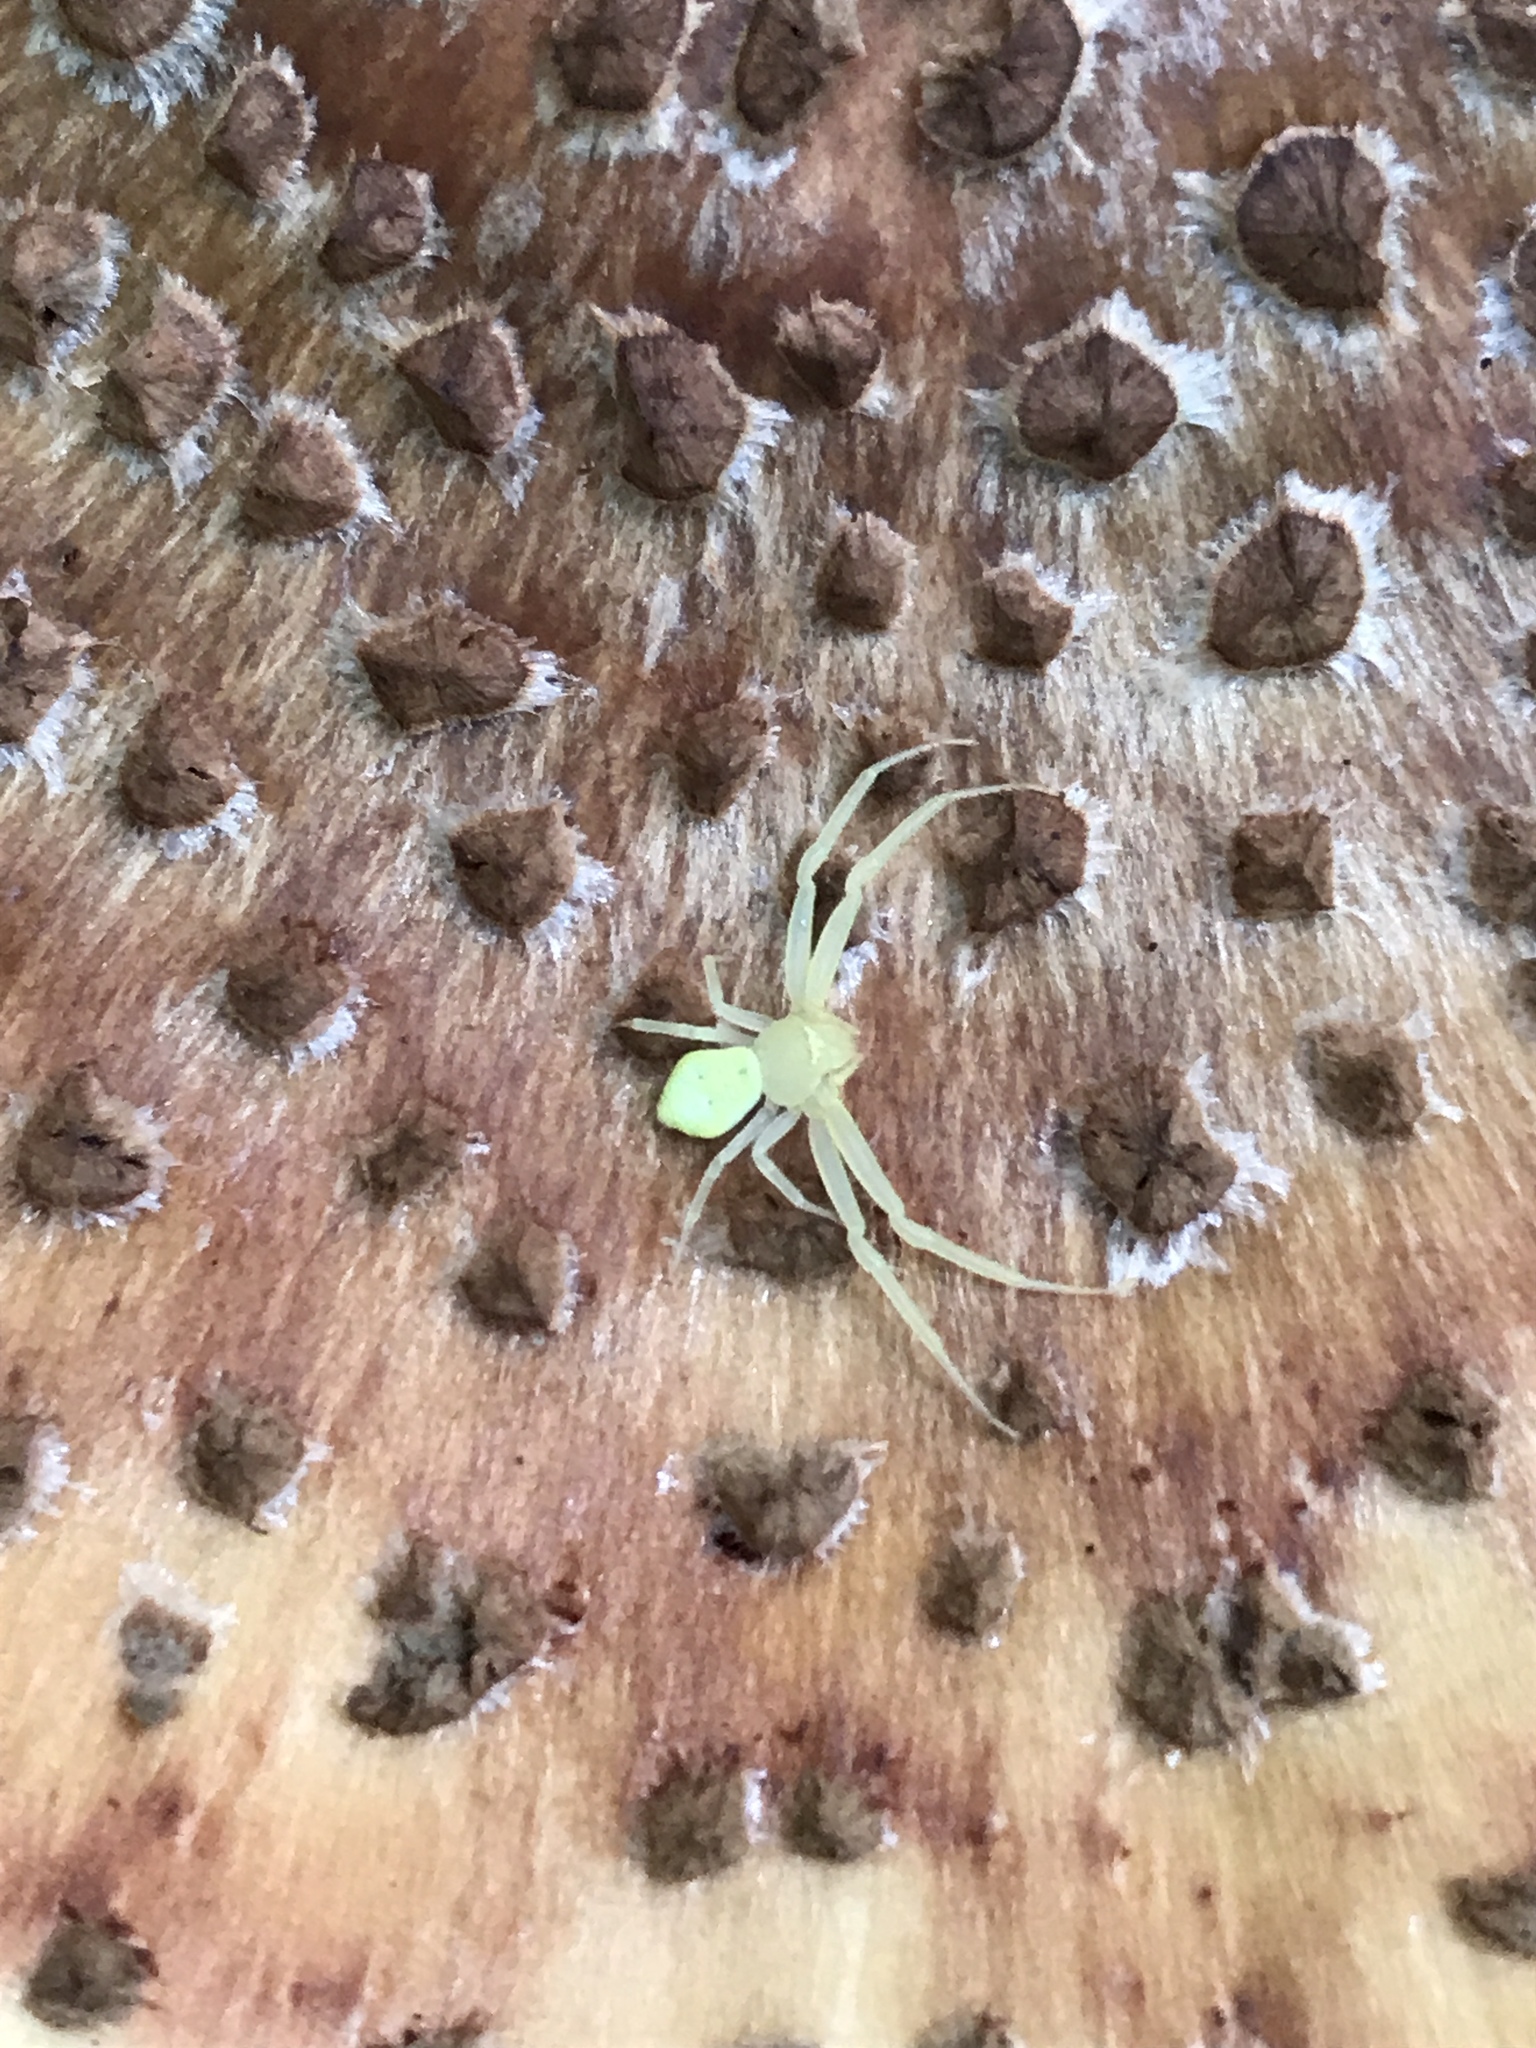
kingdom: Animalia
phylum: Arthropoda
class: Arachnida
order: Araneae
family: Thomisidae
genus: Misumessus
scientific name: Misumessus oblongus
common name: American green crab spider
